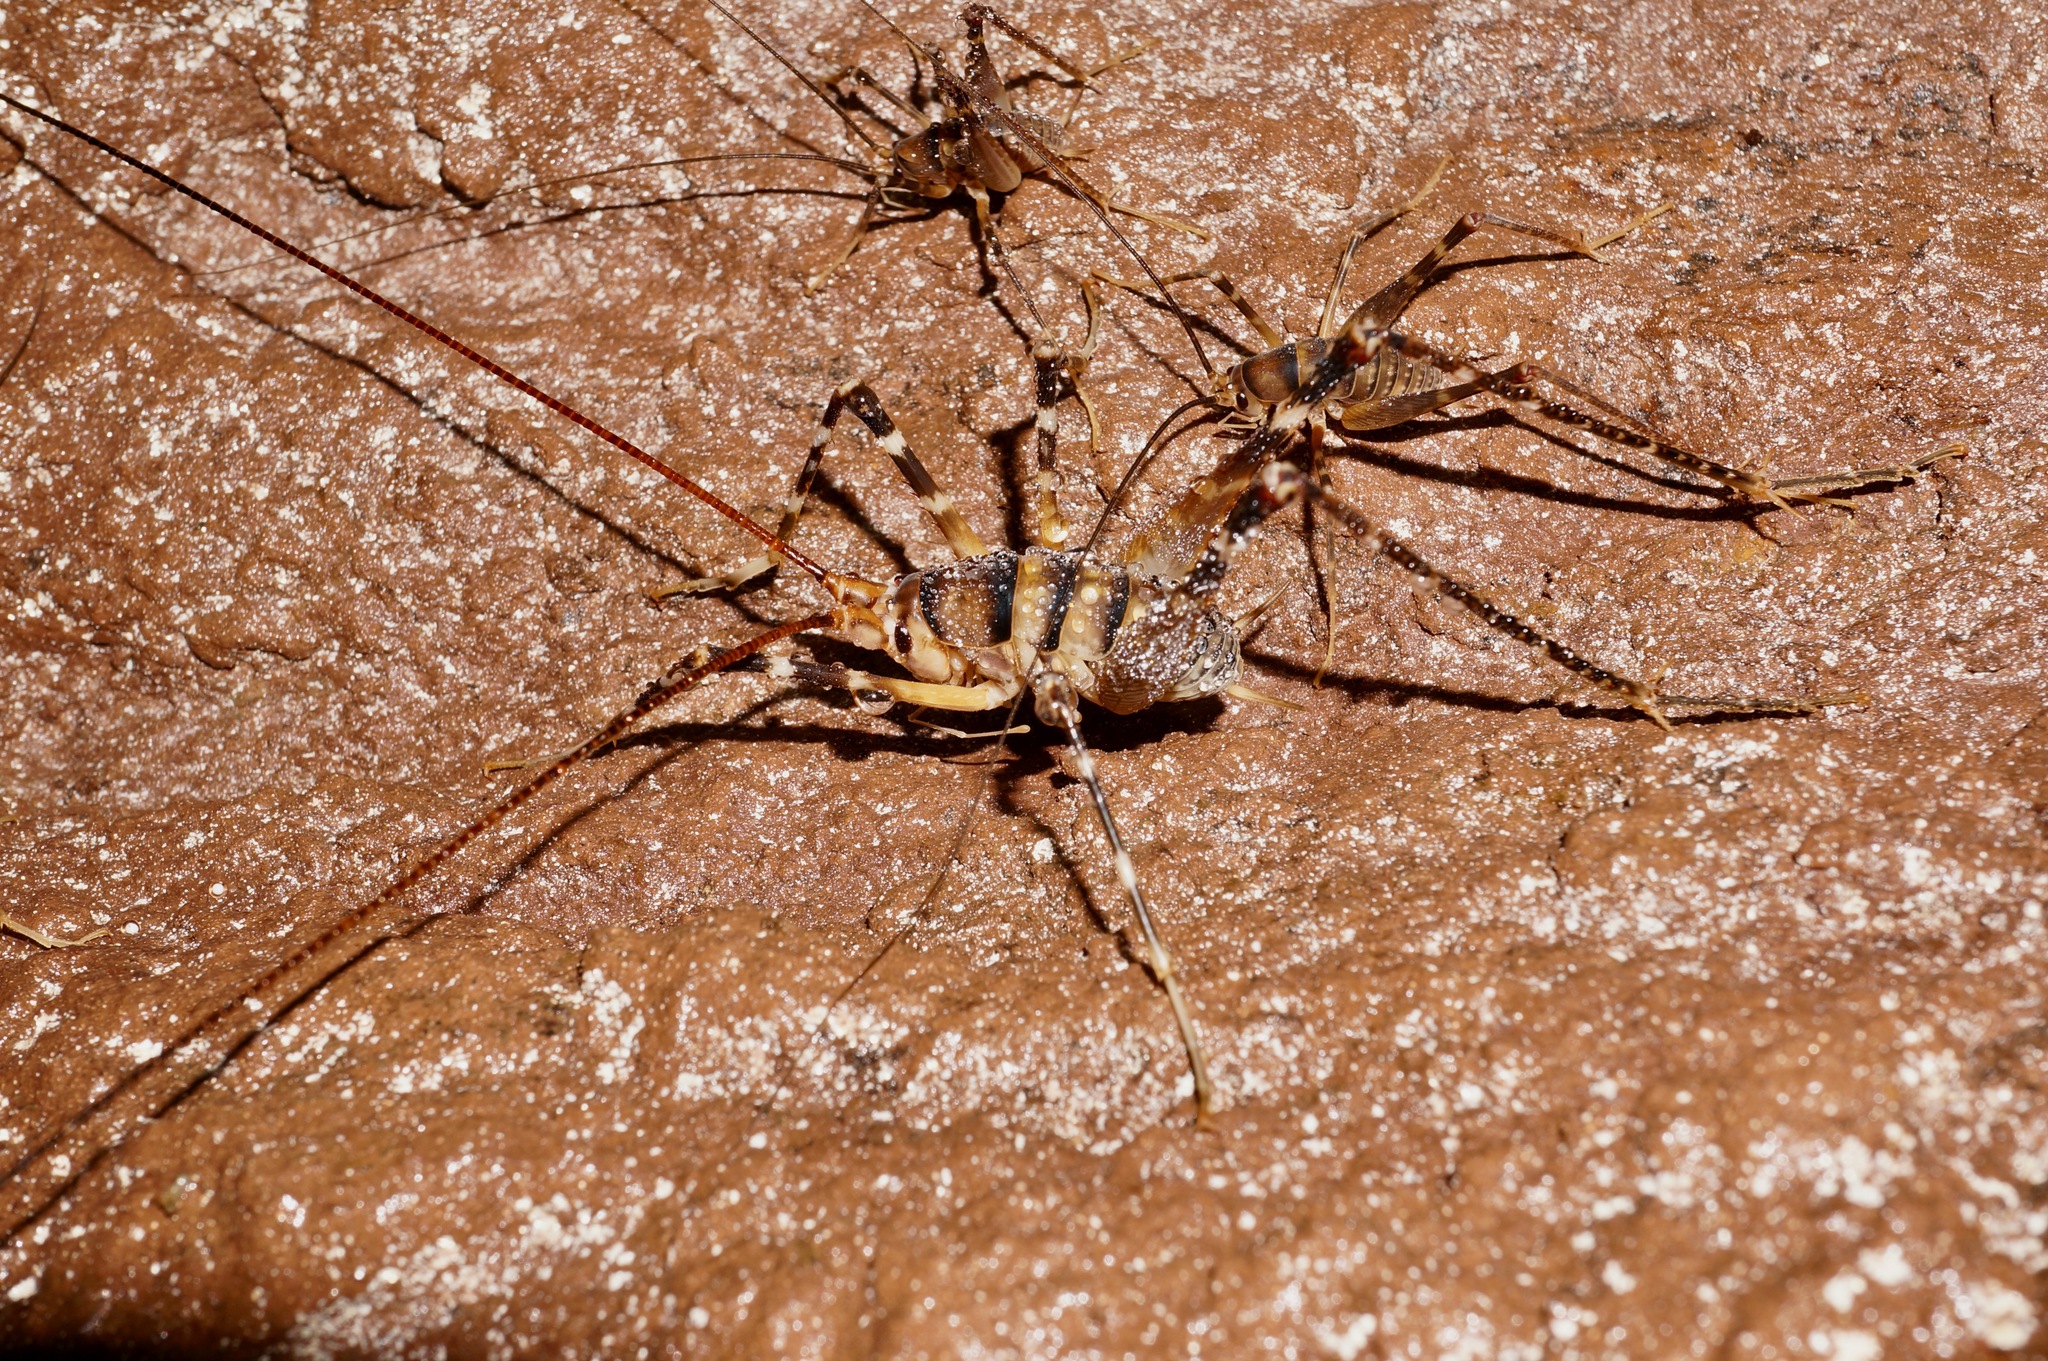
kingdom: Animalia
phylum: Arthropoda
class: Insecta
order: Orthoptera
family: Rhaphidophoridae
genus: Pachyrhamma
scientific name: Pachyrhamma edwardsii
